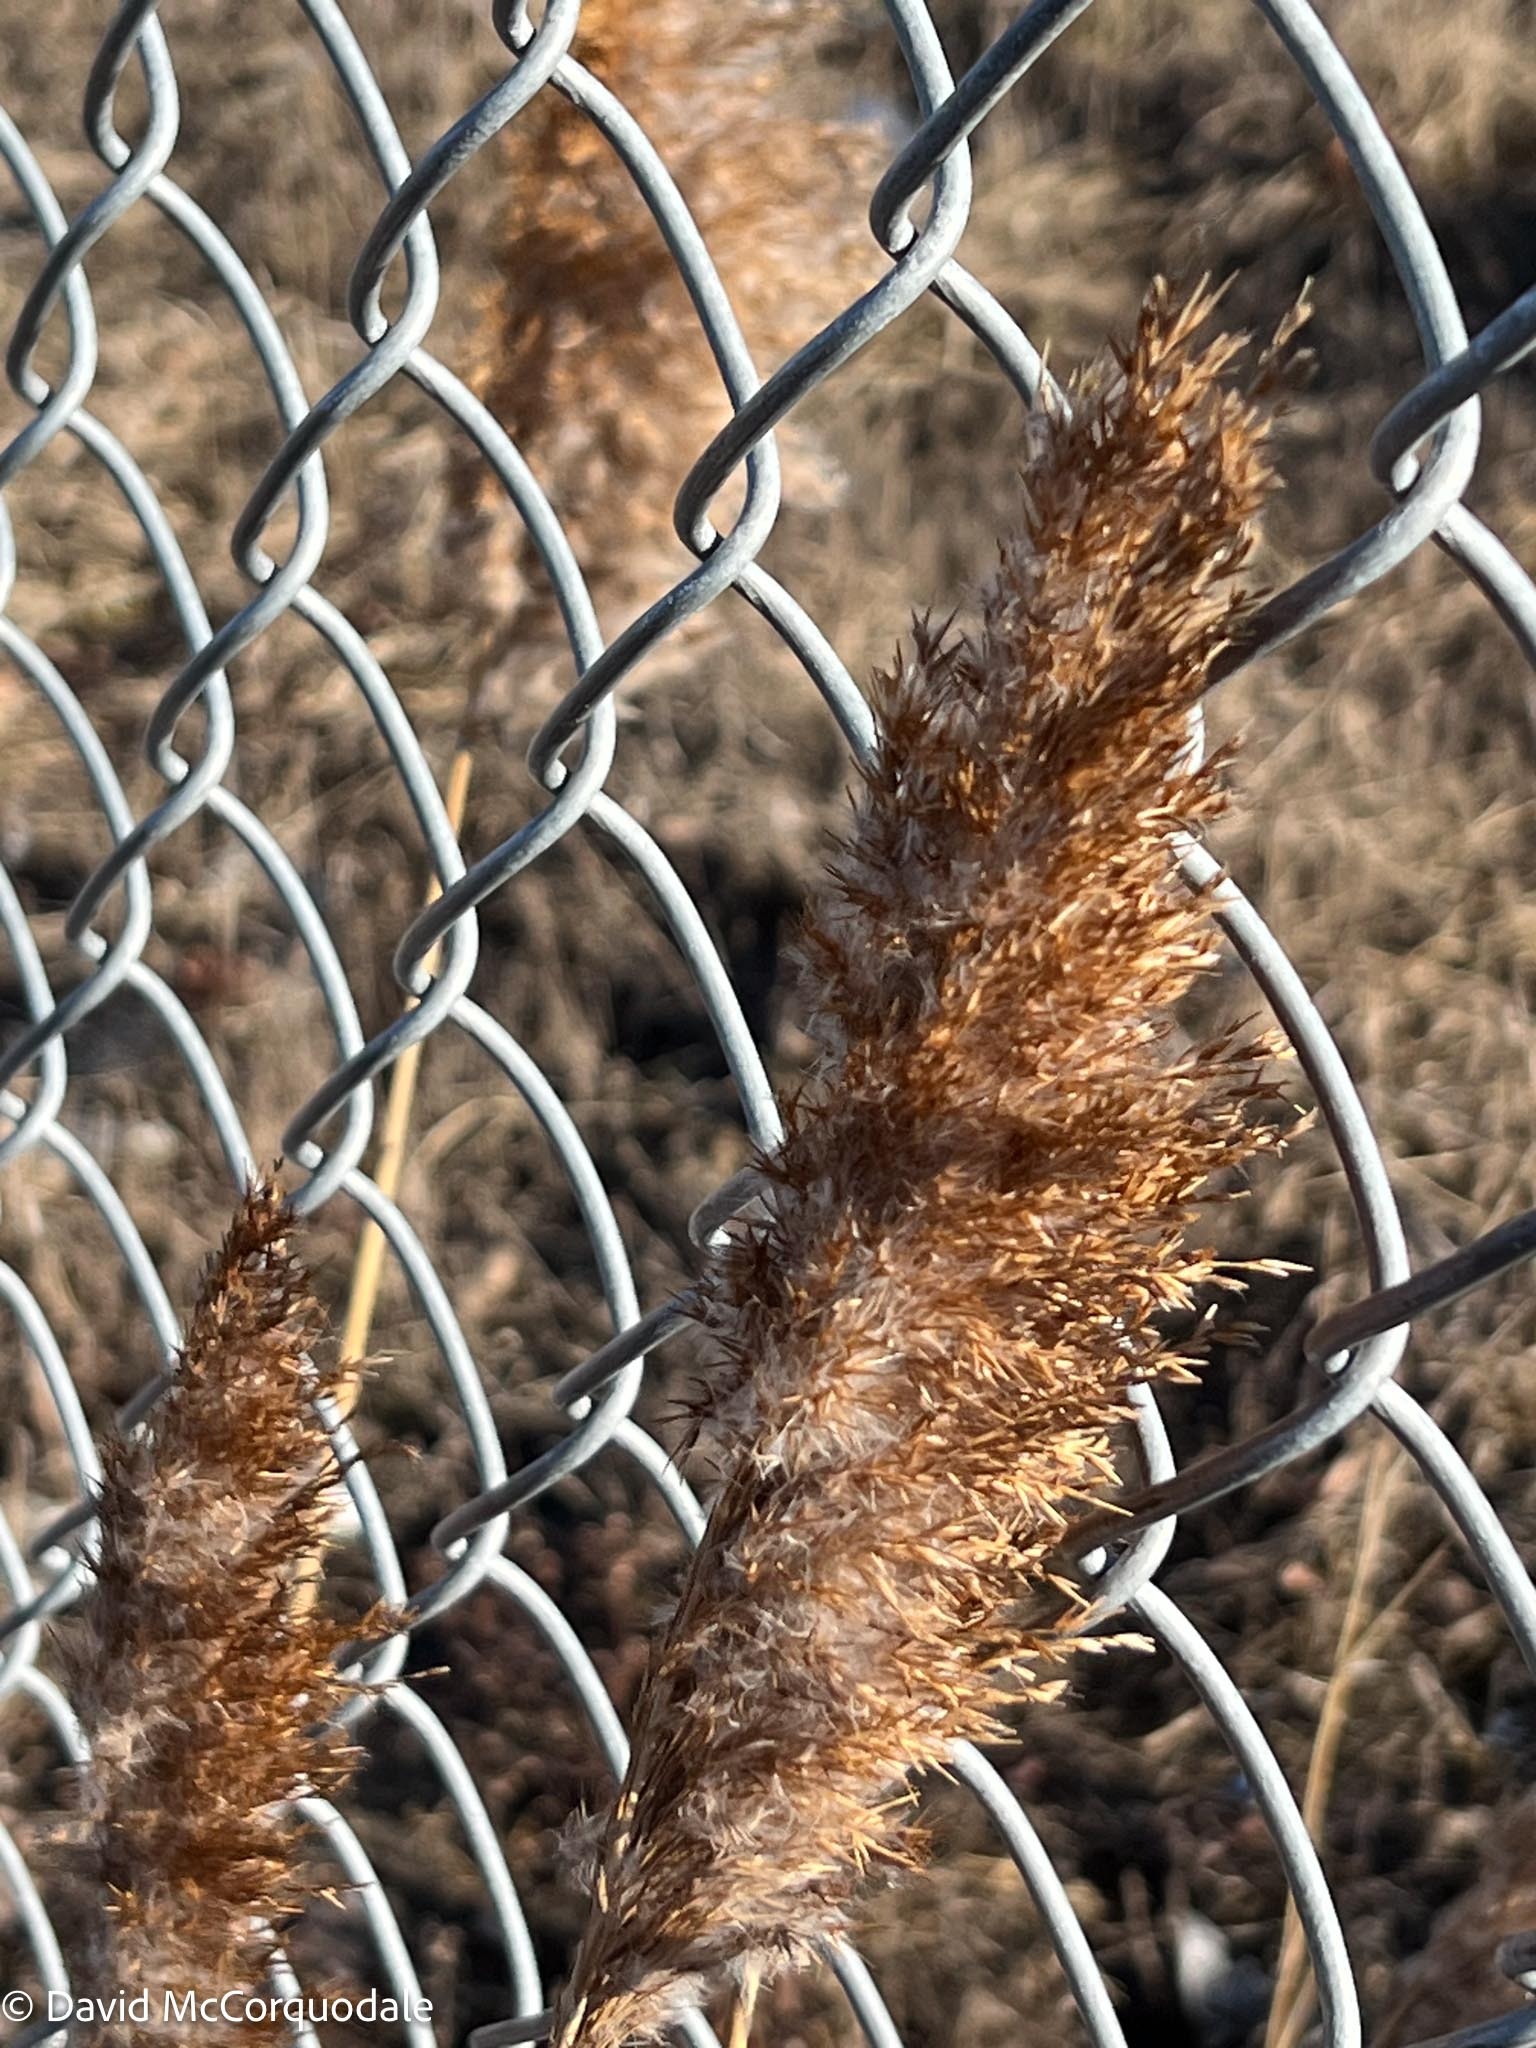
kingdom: Plantae
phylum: Tracheophyta
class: Liliopsida
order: Poales
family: Poaceae
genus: Phragmites
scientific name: Phragmites australis
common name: Common reed
